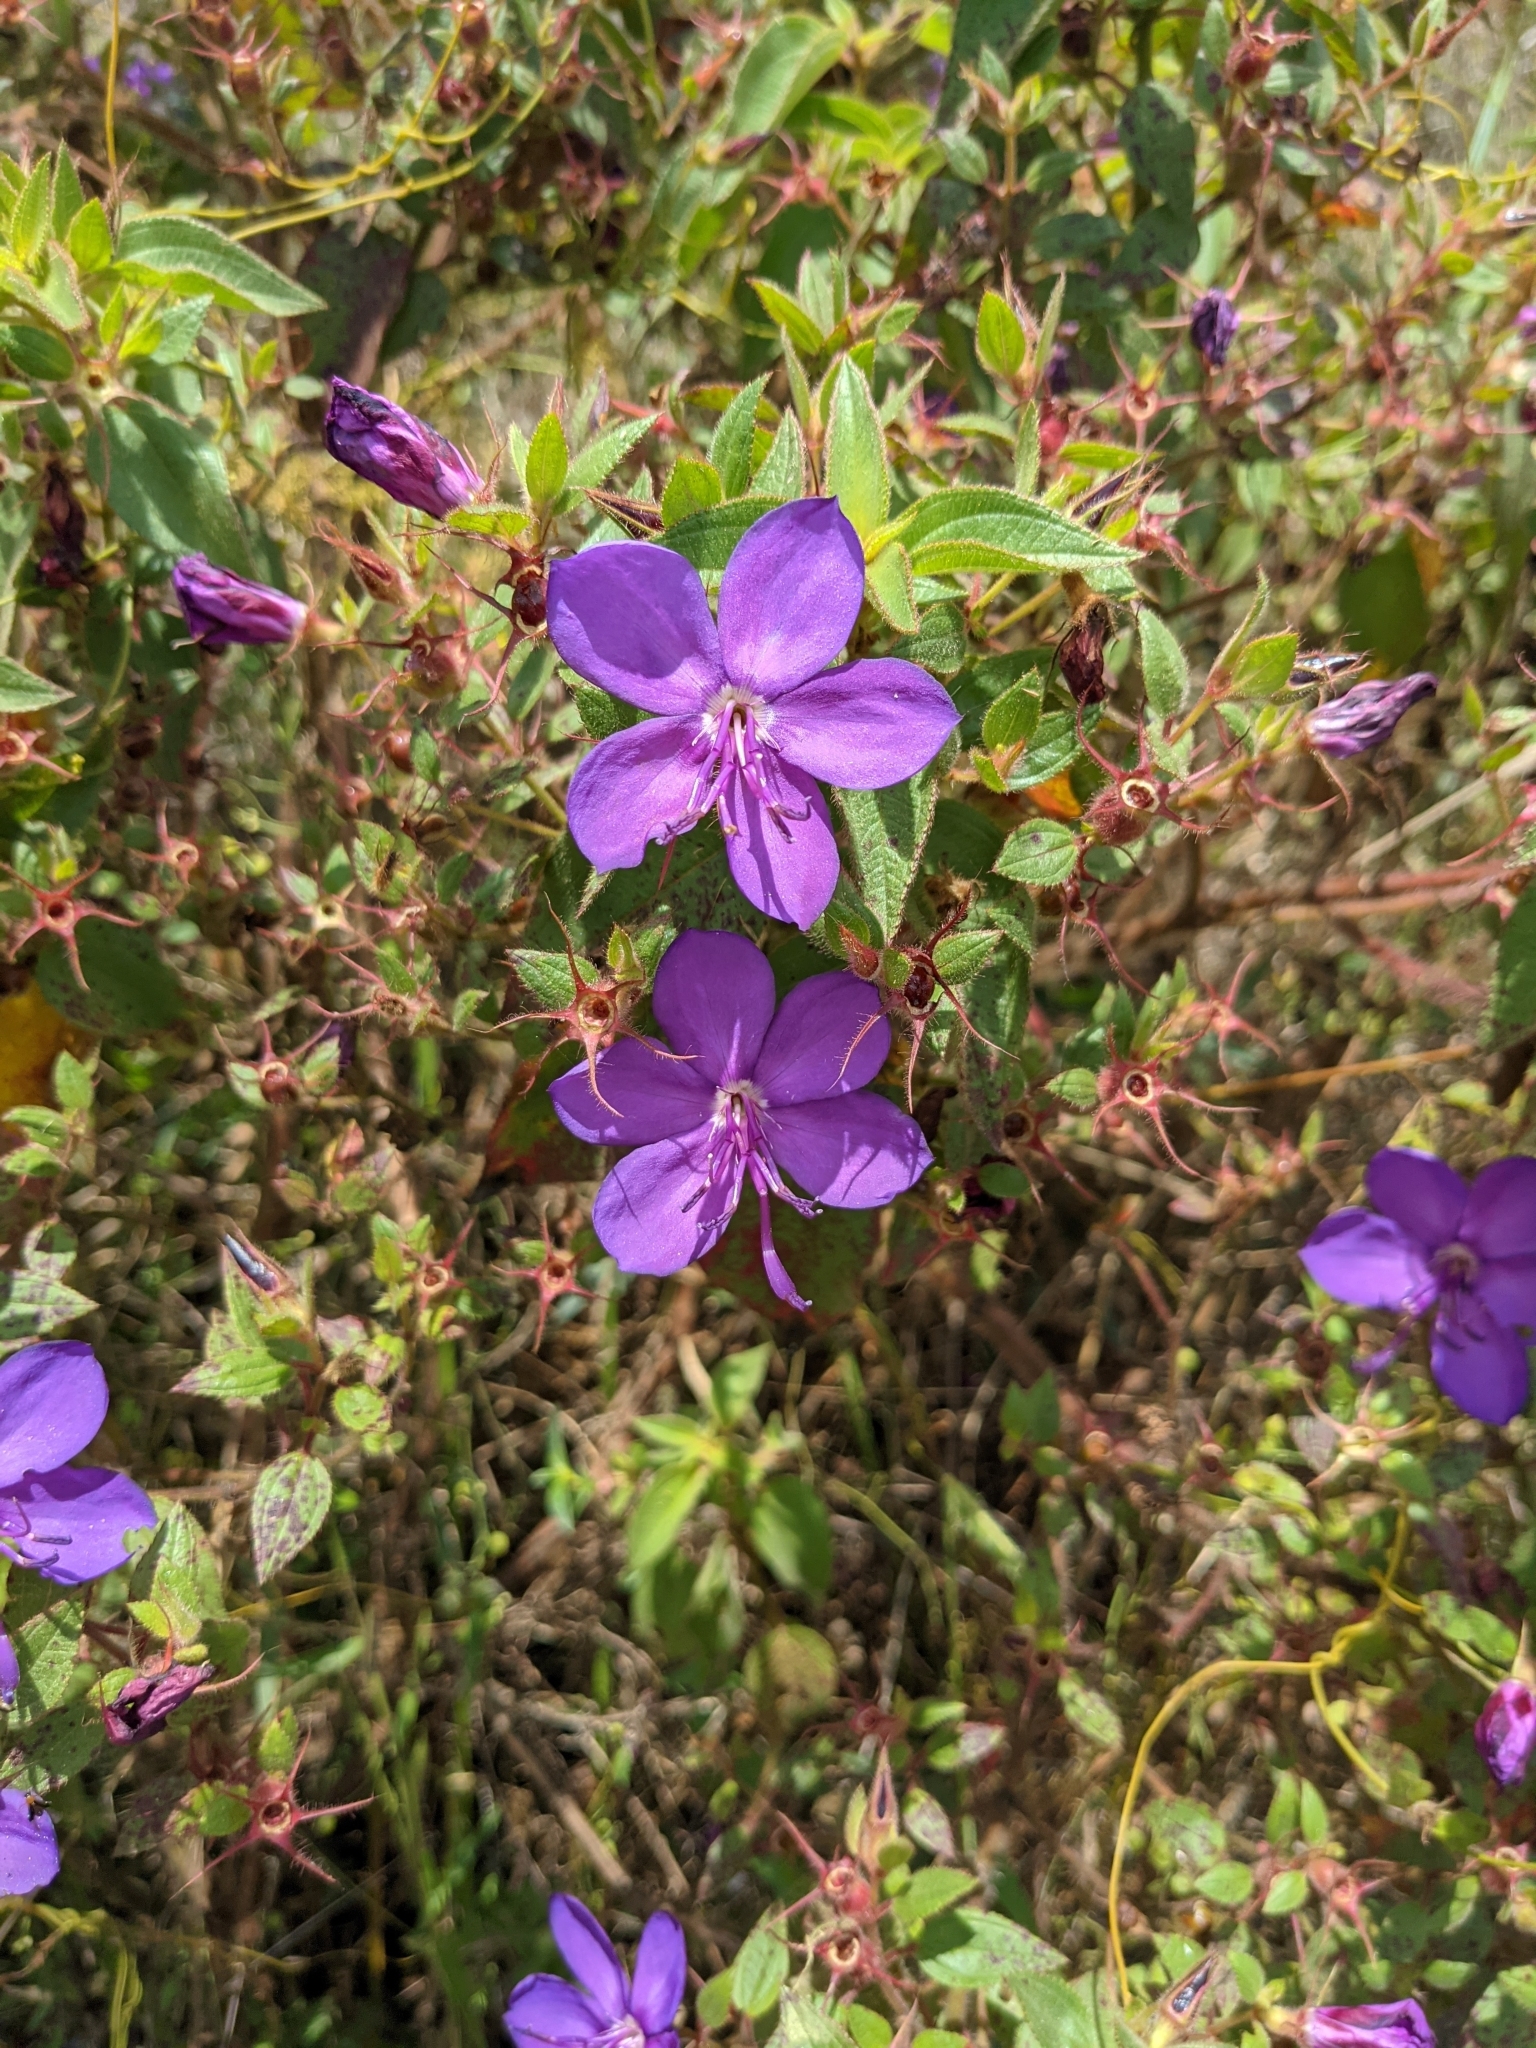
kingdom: Plantae
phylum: Tracheophyta
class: Magnoliopsida
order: Myrtales
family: Melastomataceae
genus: Rhynchanthera
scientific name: Rhynchanthera grandiflora
